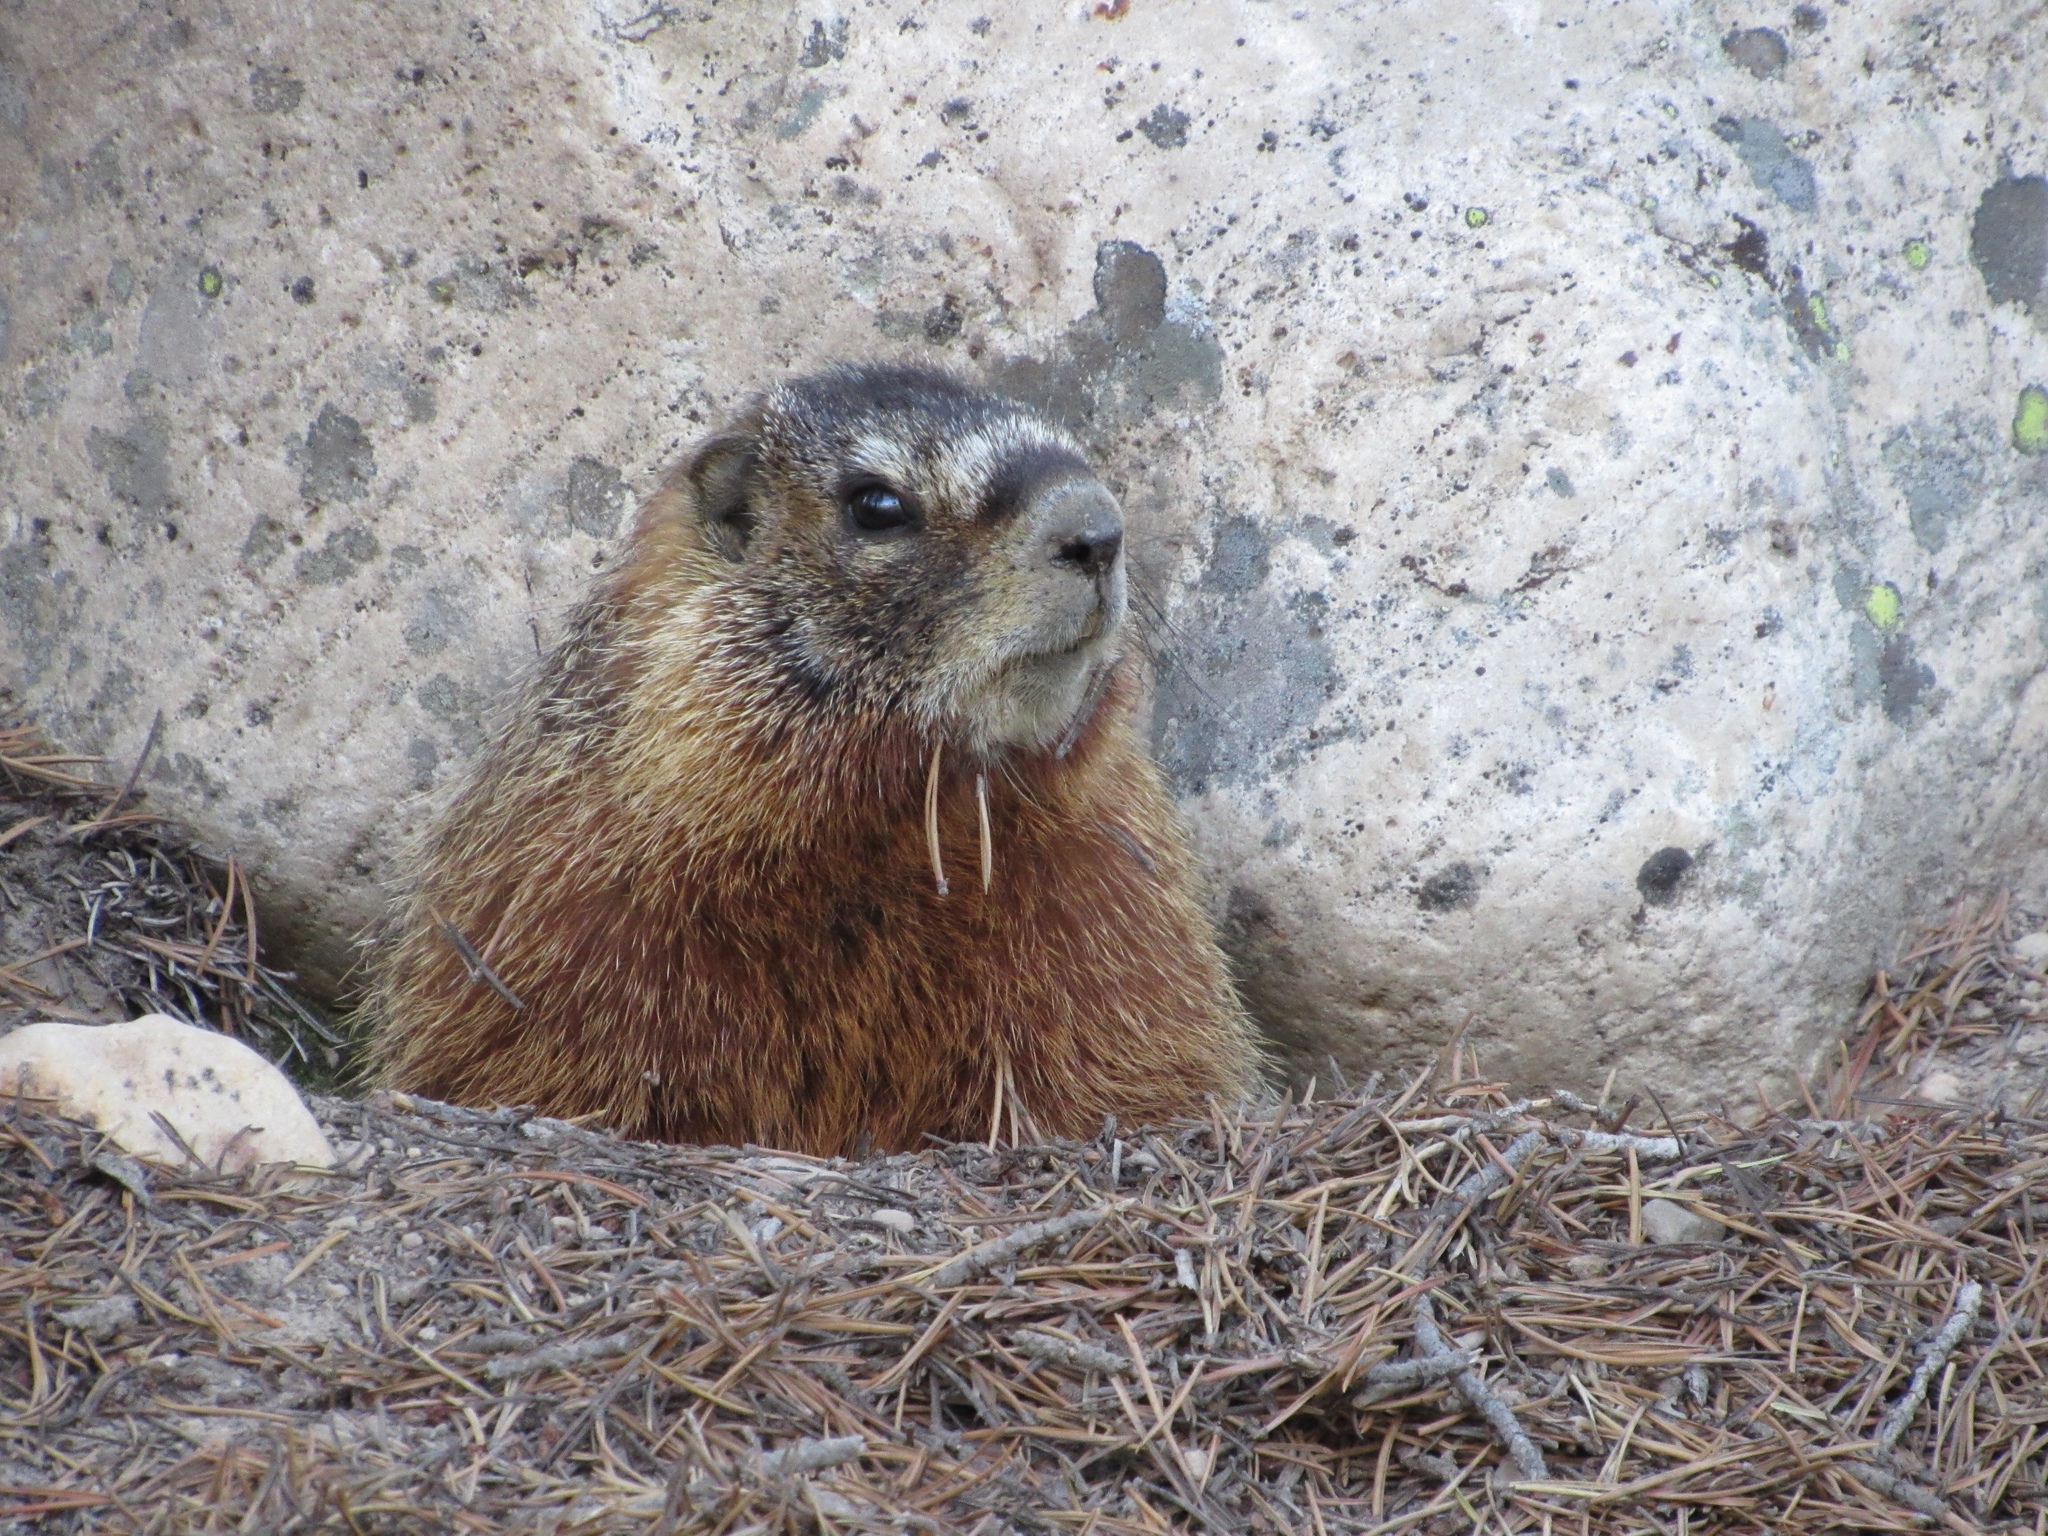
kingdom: Animalia
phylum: Chordata
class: Mammalia
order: Rodentia
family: Sciuridae
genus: Marmota
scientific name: Marmota flaviventris
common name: Yellow-bellied marmot
